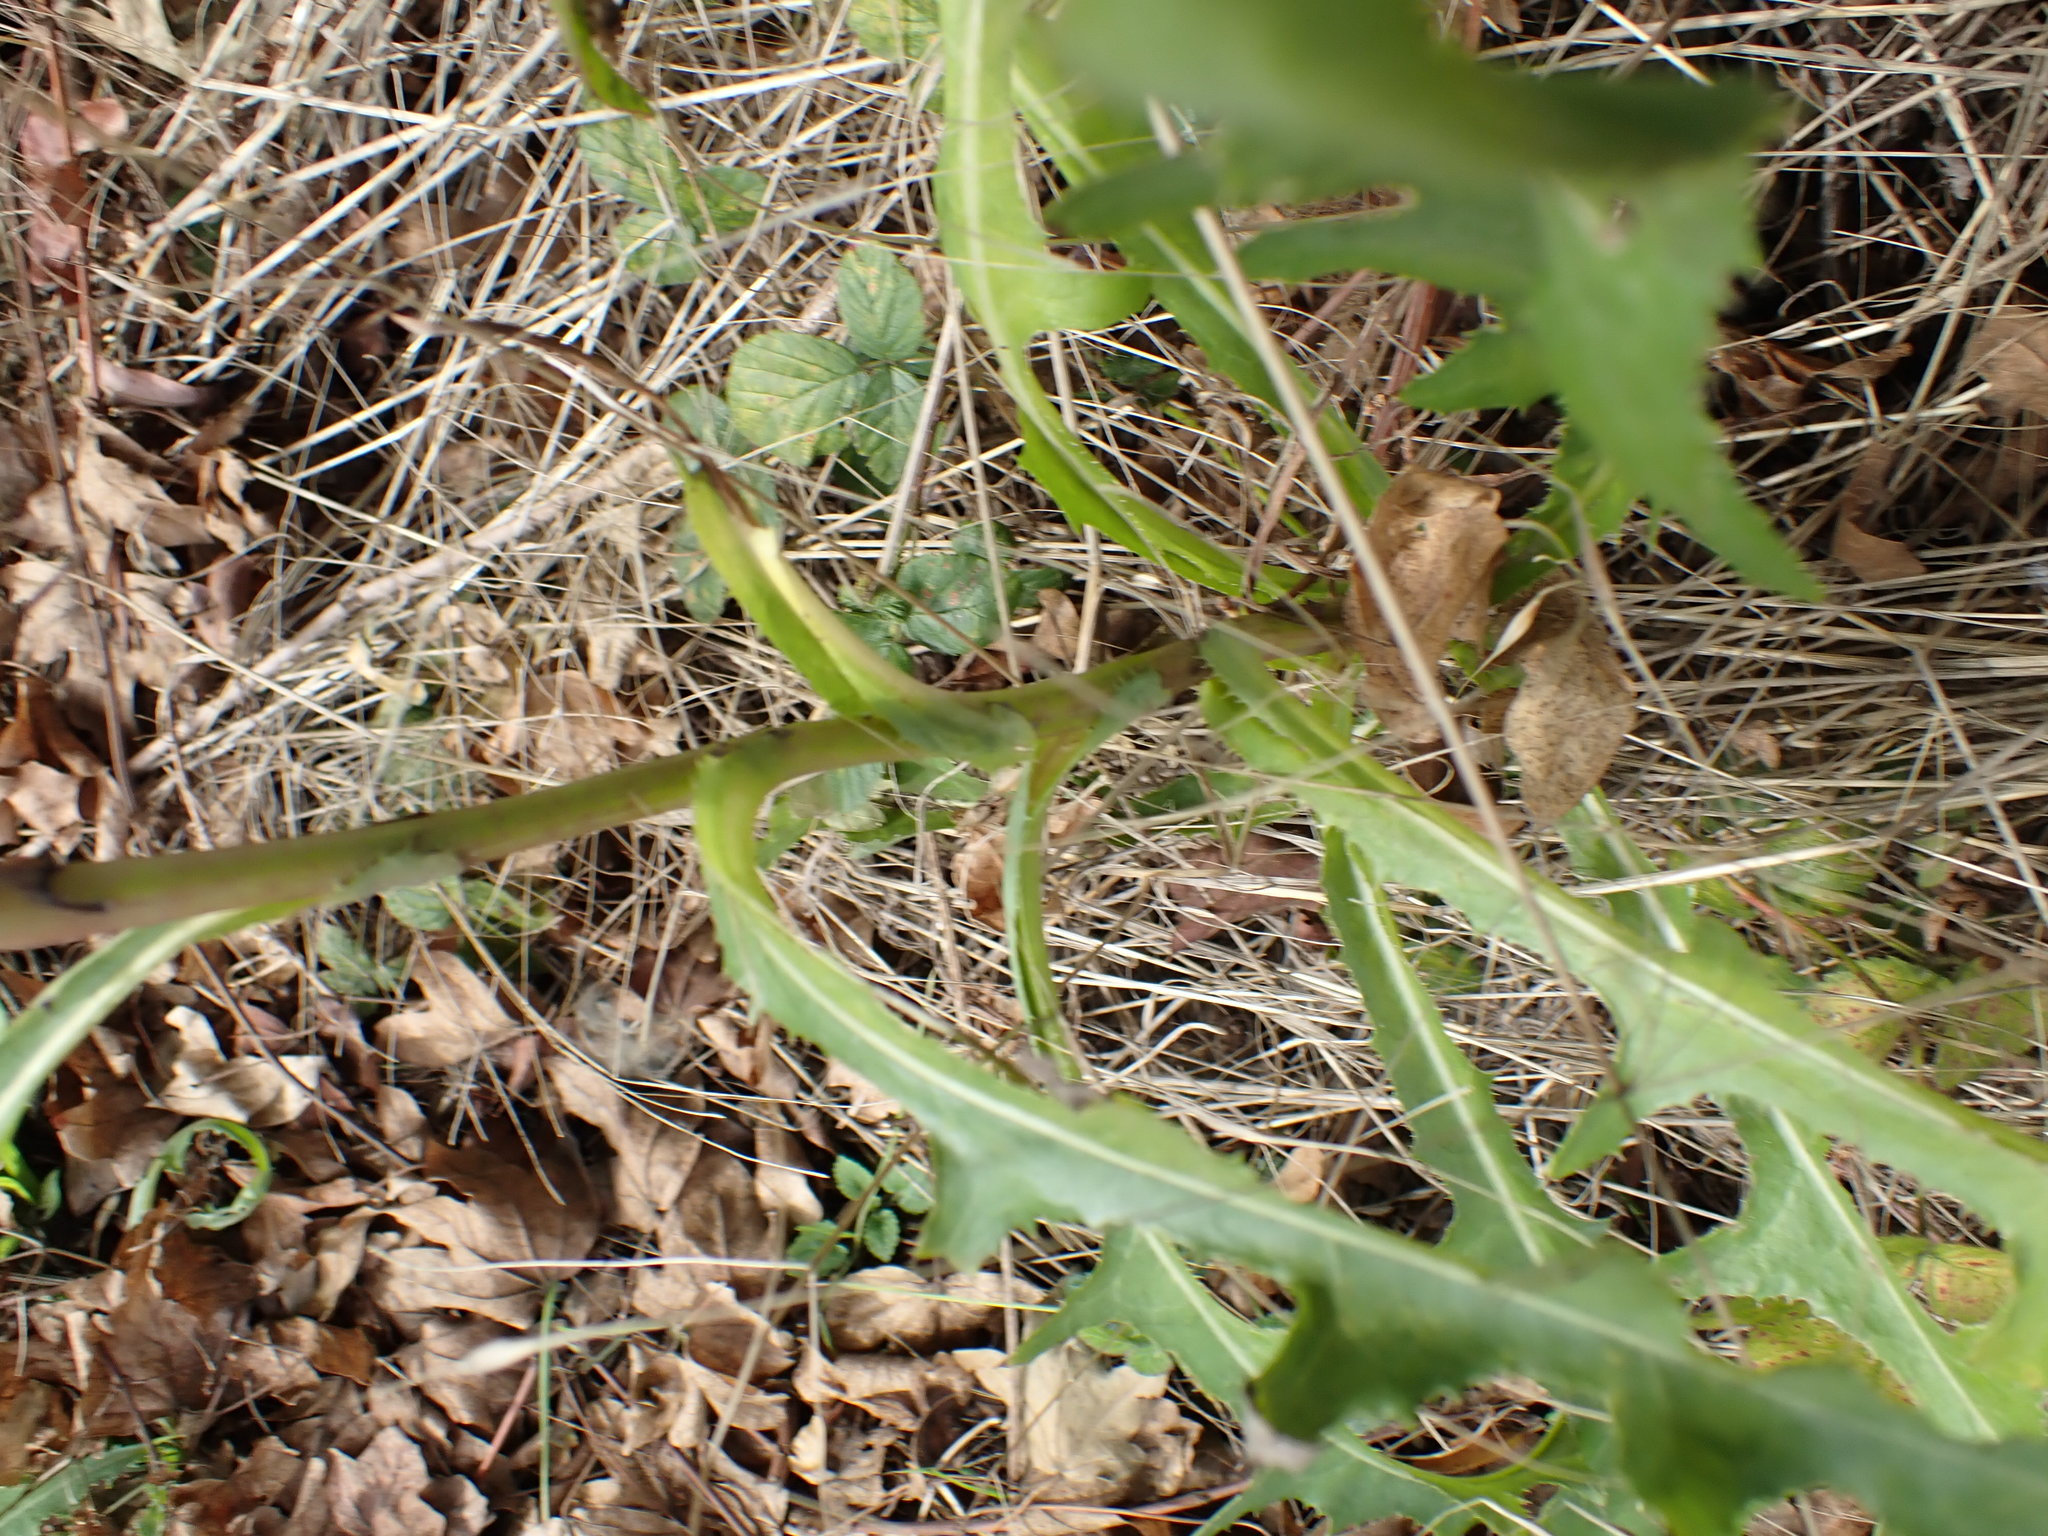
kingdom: Plantae
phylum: Tracheophyta
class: Magnoliopsida
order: Asterales
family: Asteraceae
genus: Sonchus
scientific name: Sonchus arvensis
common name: Perennial sow-thistle
